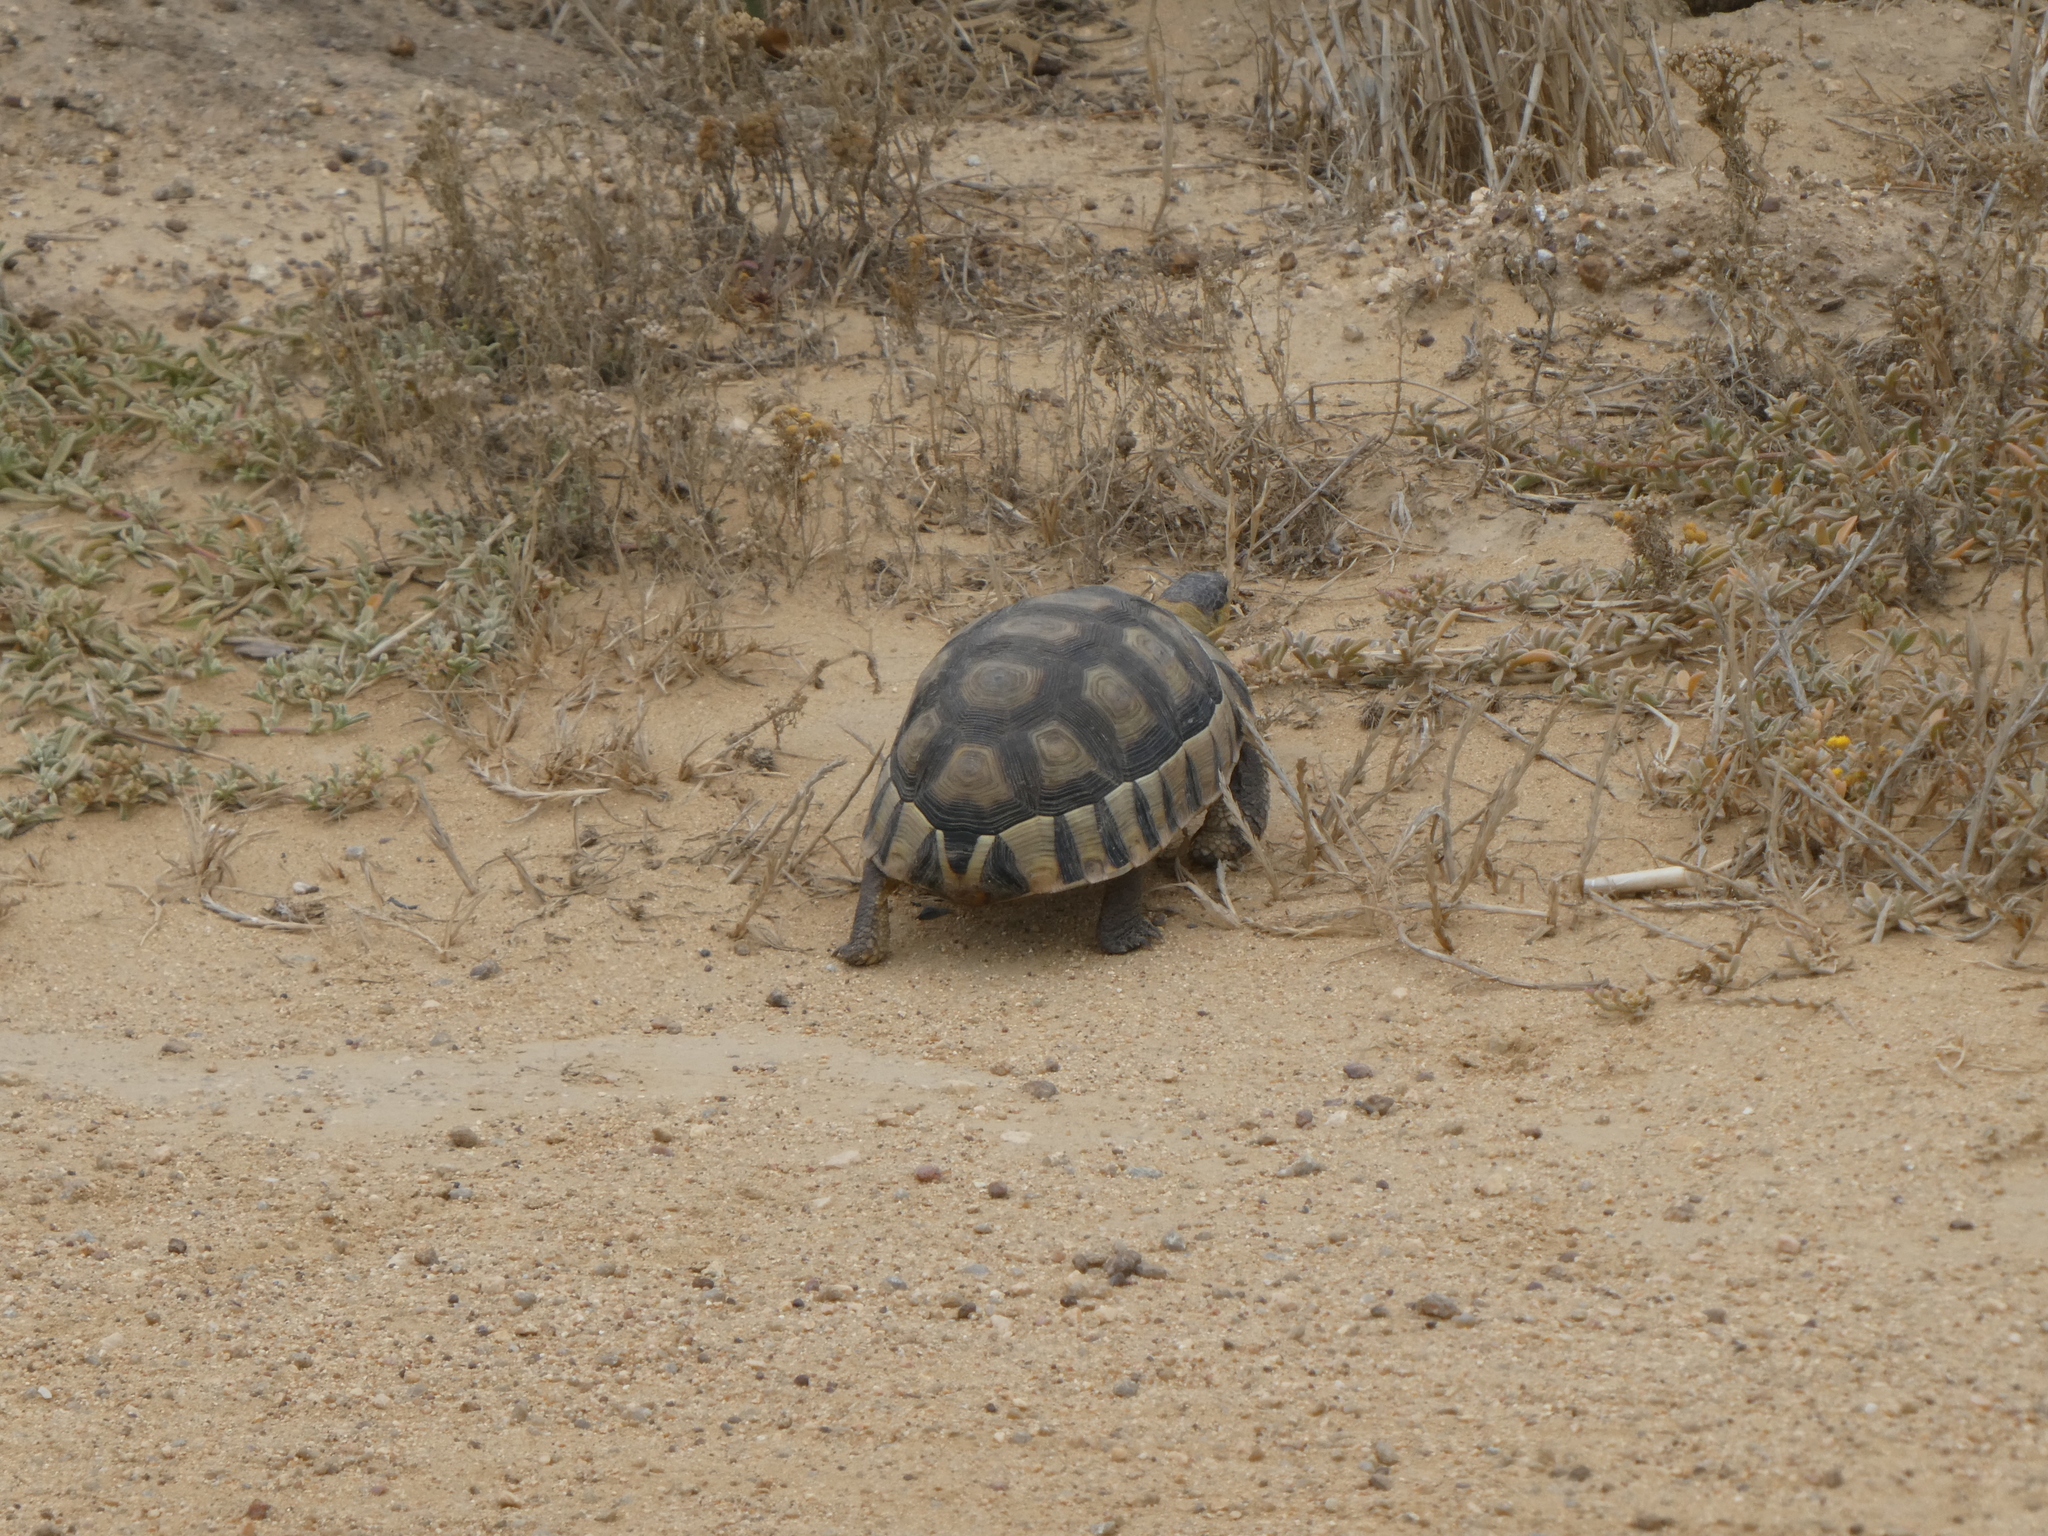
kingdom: Animalia
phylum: Chordata
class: Testudines
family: Testudinidae
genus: Chersina
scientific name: Chersina angulata
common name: South african bowsprit tortoise
